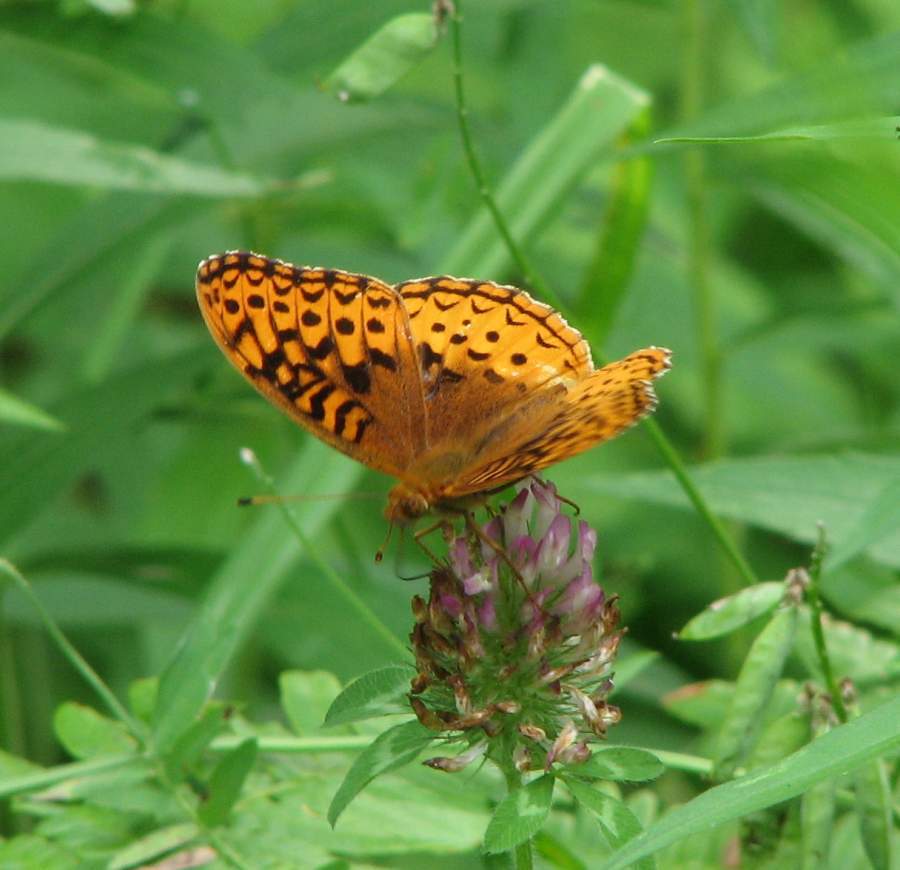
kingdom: Animalia
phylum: Arthropoda
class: Insecta
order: Lepidoptera
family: Nymphalidae
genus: Speyeria
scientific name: Speyeria cybele
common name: Great spangled fritillary
